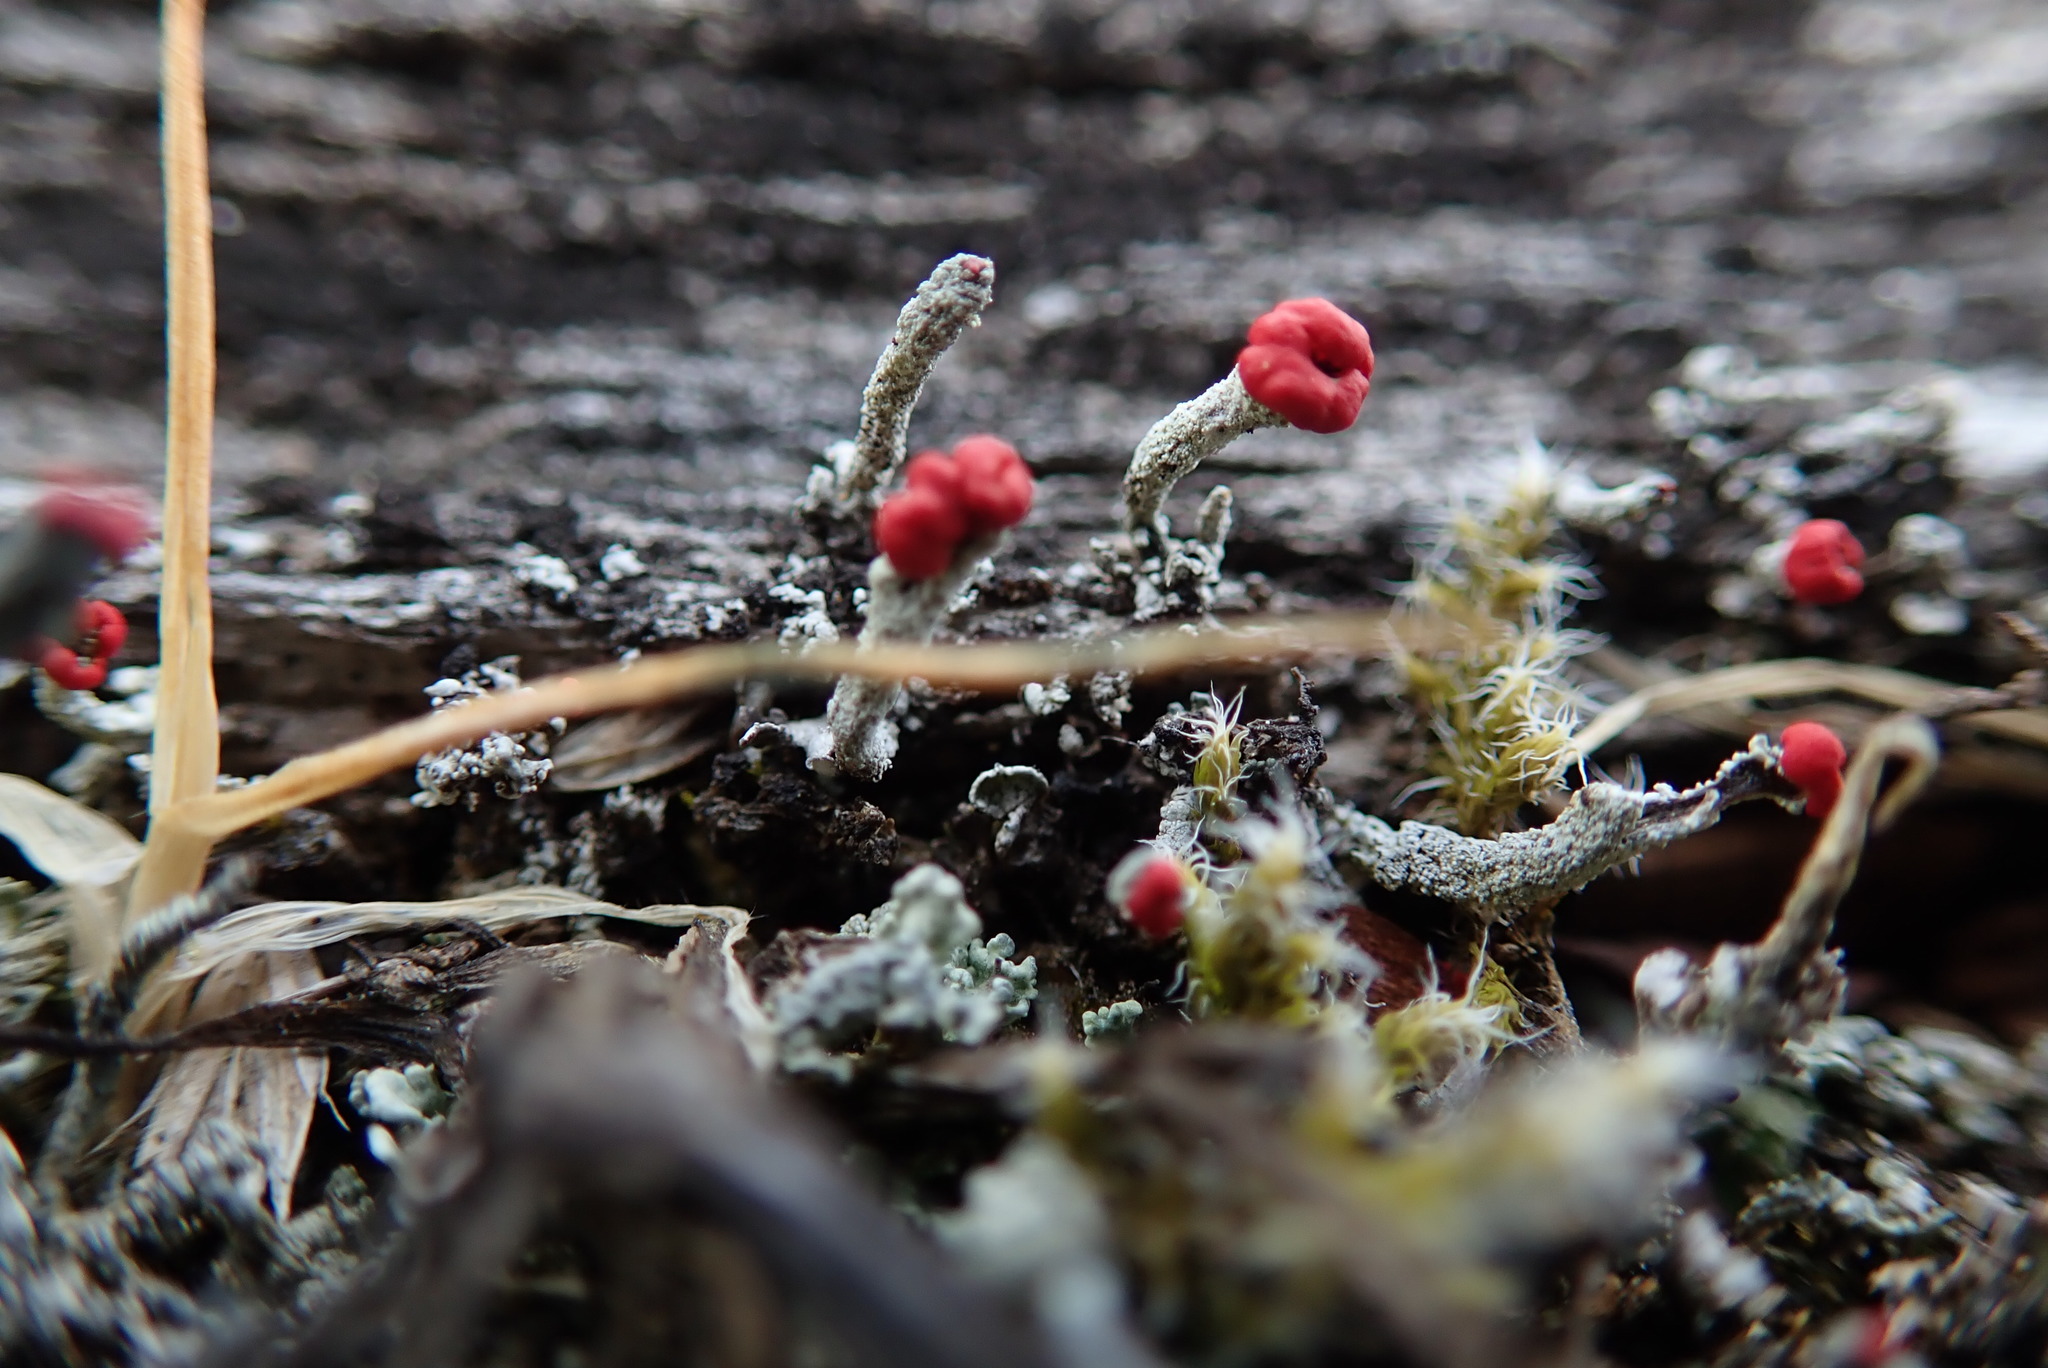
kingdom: Fungi
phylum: Ascomycota
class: Lecanoromycetes
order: Lecanorales
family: Cladoniaceae
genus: Cladonia
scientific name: Cladonia cristatella
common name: British soldier lichen
